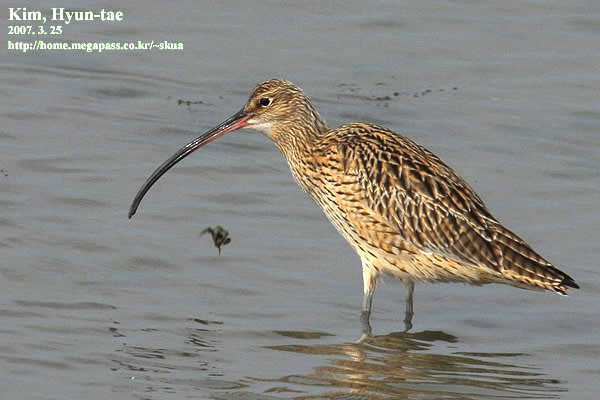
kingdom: Animalia
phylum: Chordata
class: Aves
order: Charadriiformes
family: Scolopacidae
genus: Numenius
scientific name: Numenius madagascariensis
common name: Far eastern curlew
